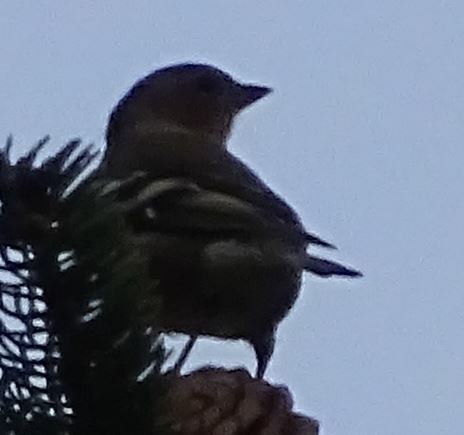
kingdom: Animalia
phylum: Chordata
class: Aves
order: Passeriformes
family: Fringillidae
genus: Fringilla
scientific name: Fringilla coelebs
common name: Common chaffinch
